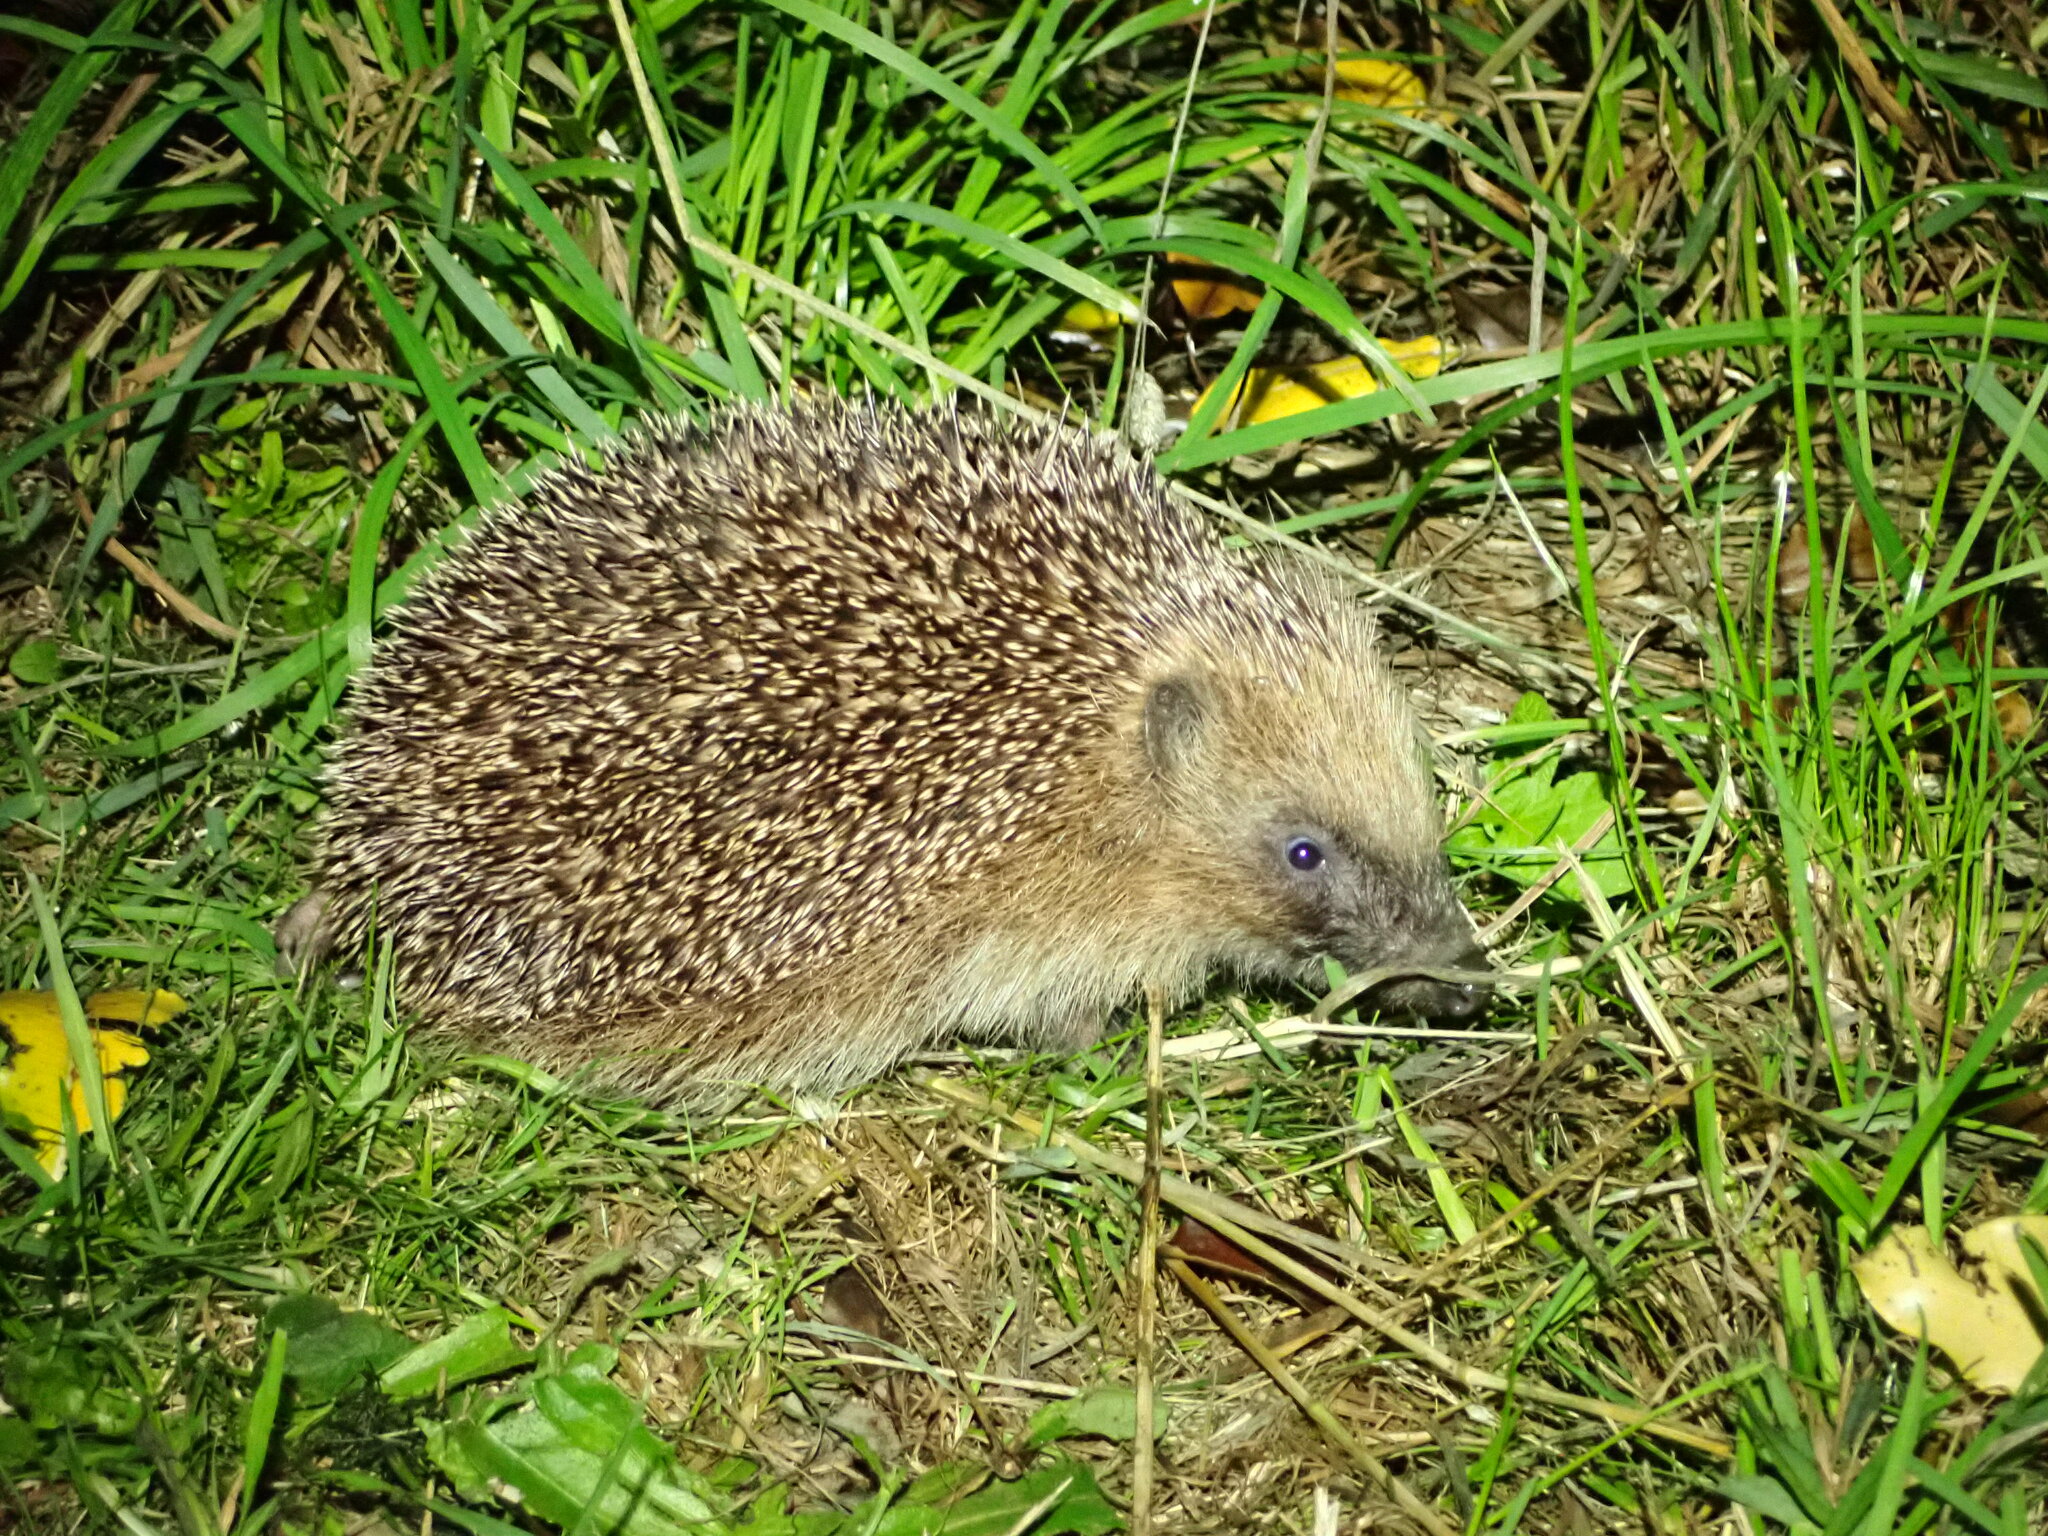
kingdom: Animalia
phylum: Chordata
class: Mammalia
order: Erinaceomorpha
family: Erinaceidae
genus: Erinaceus
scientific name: Erinaceus europaeus
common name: West european hedgehog
